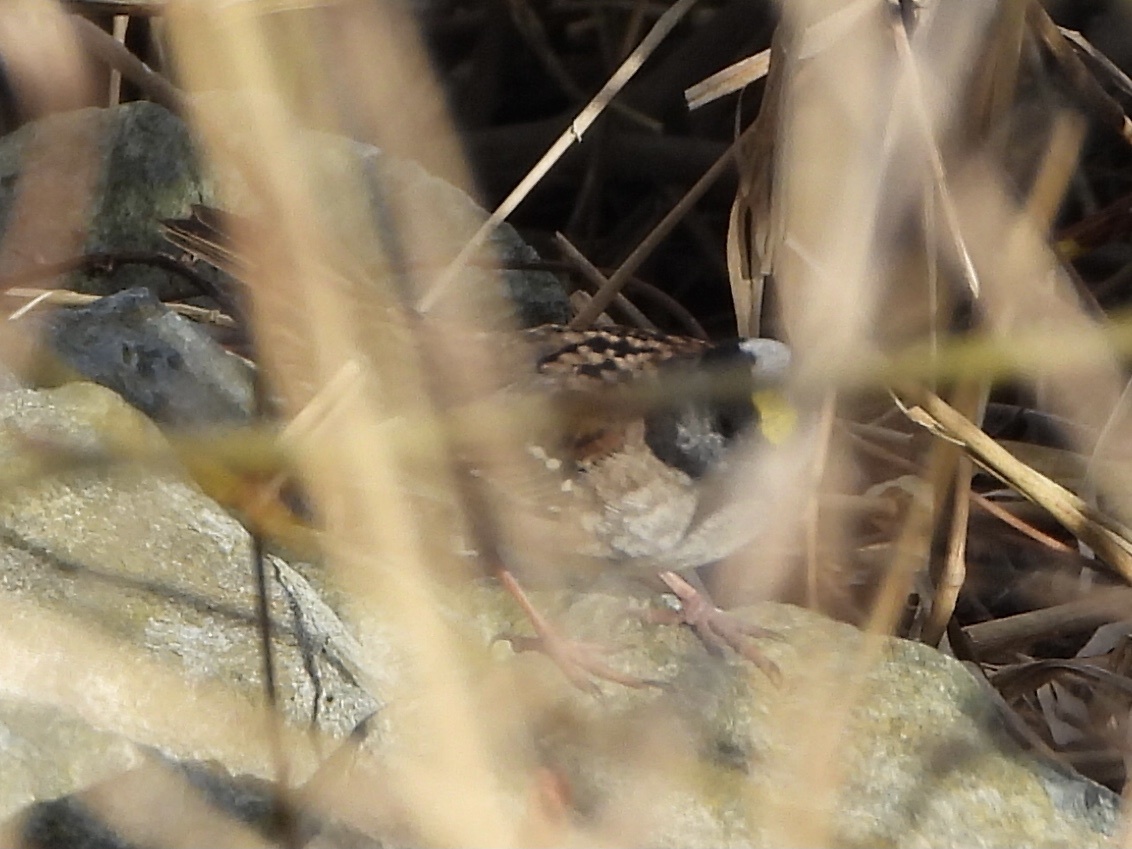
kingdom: Animalia
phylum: Chordata
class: Aves
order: Passeriformes
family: Passerellidae
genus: Zonotrichia
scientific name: Zonotrichia atricapilla
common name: Golden-crowned sparrow
